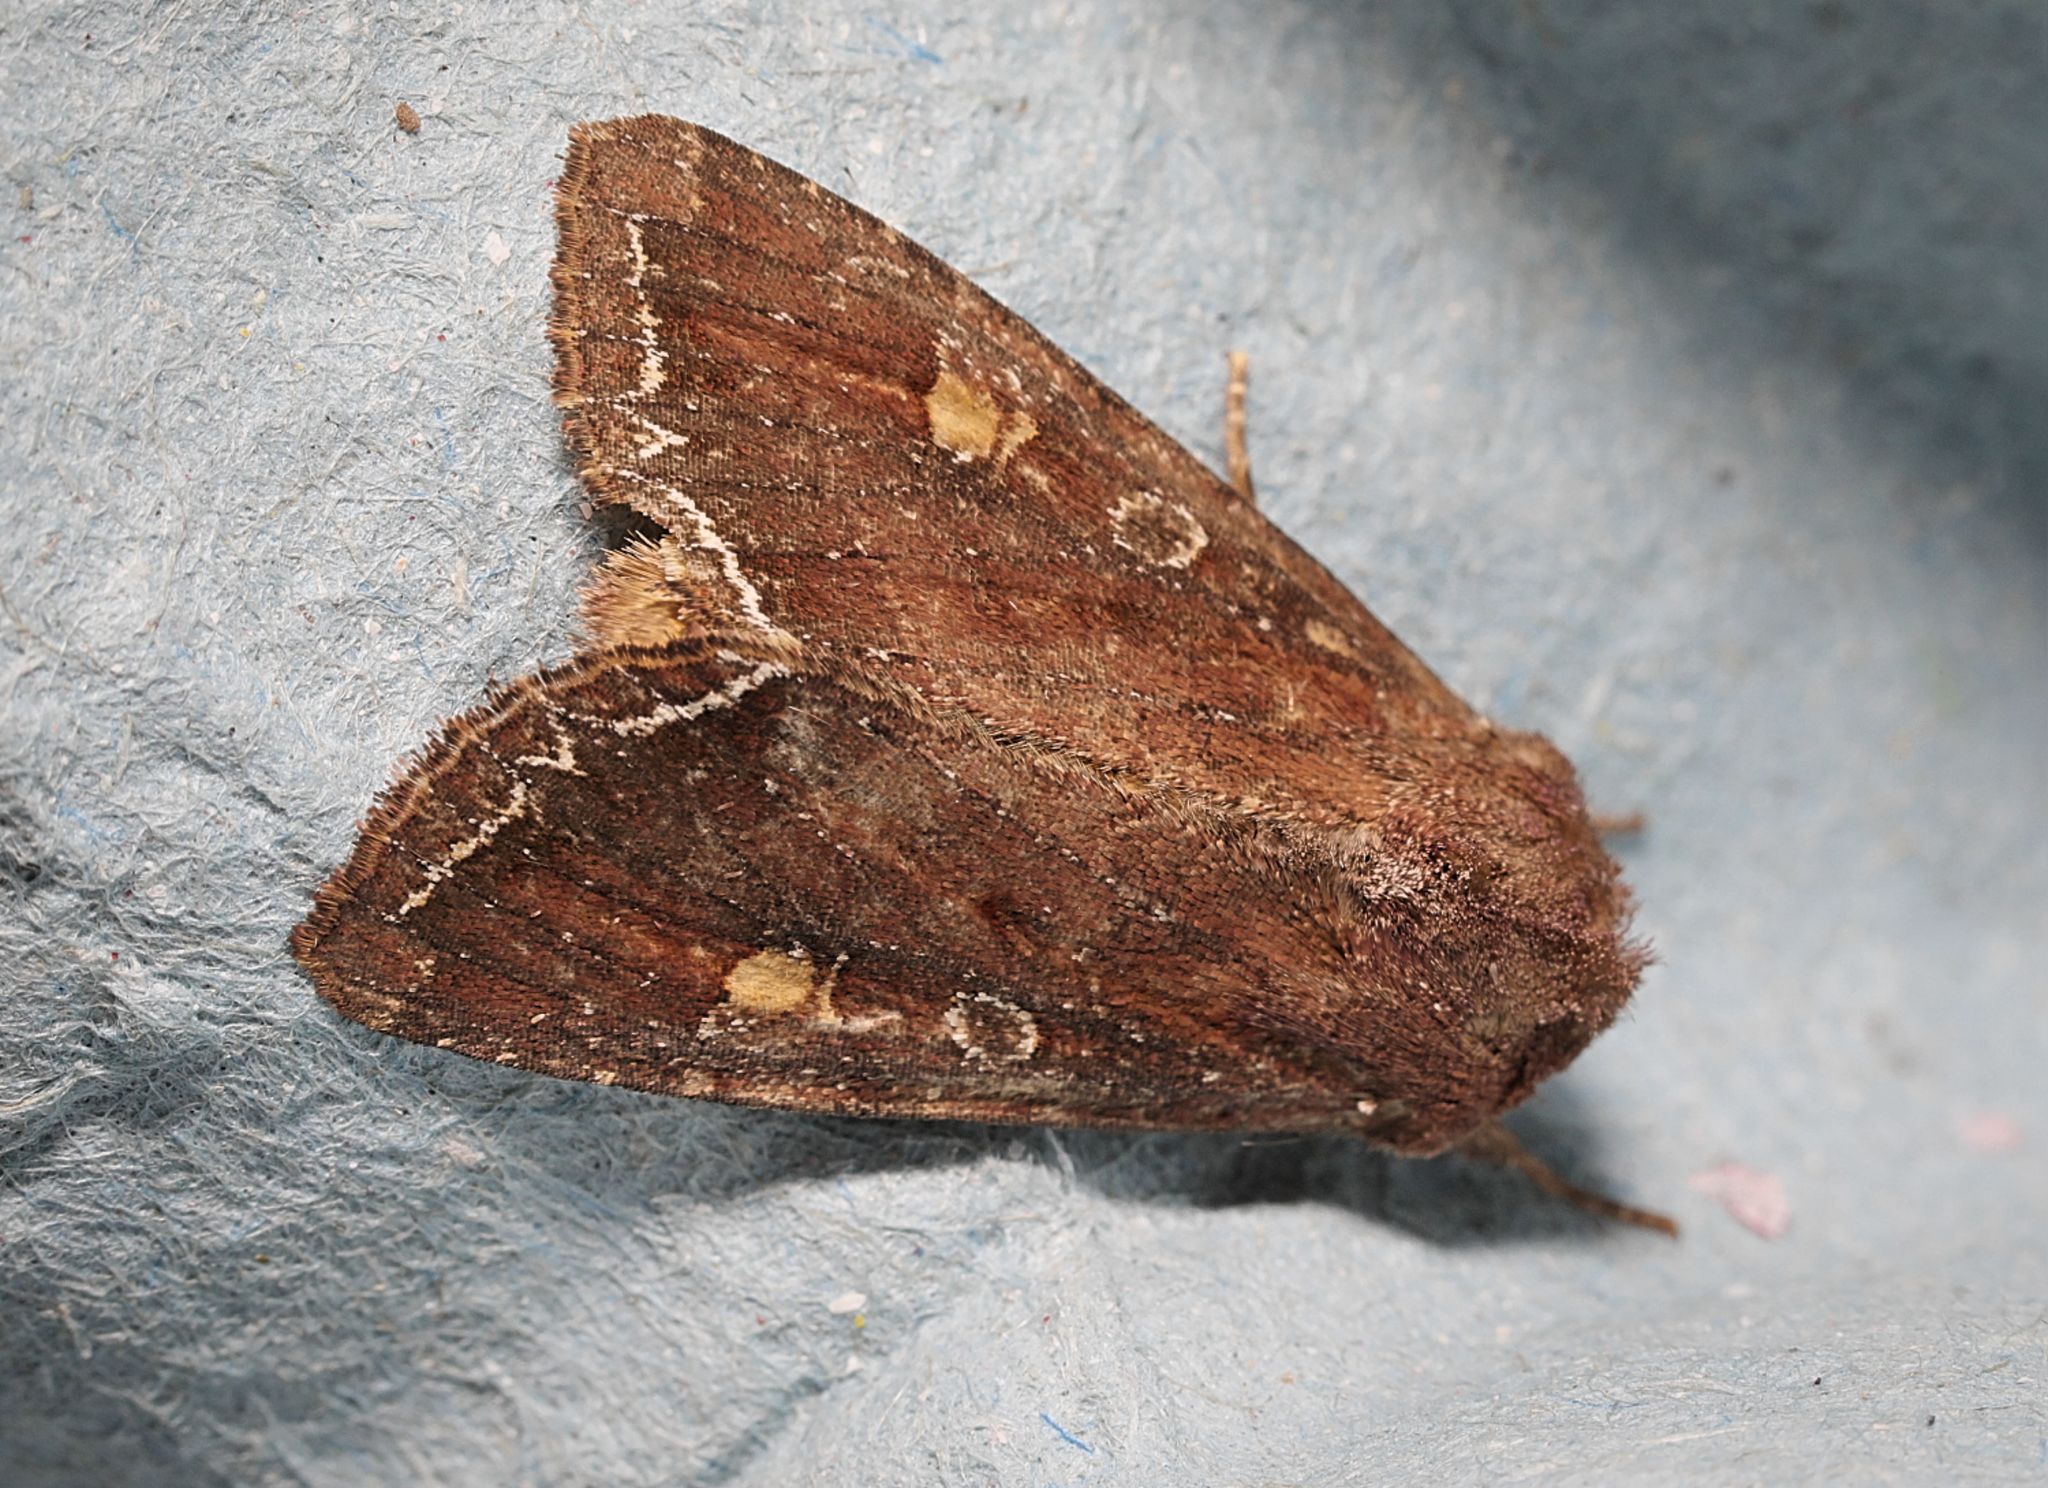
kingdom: Animalia
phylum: Arthropoda
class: Insecta
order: Lepidoptera
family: Noctuidae
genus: Lacanobia
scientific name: Lacanobia oleracea
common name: Bright-line brown-eye
